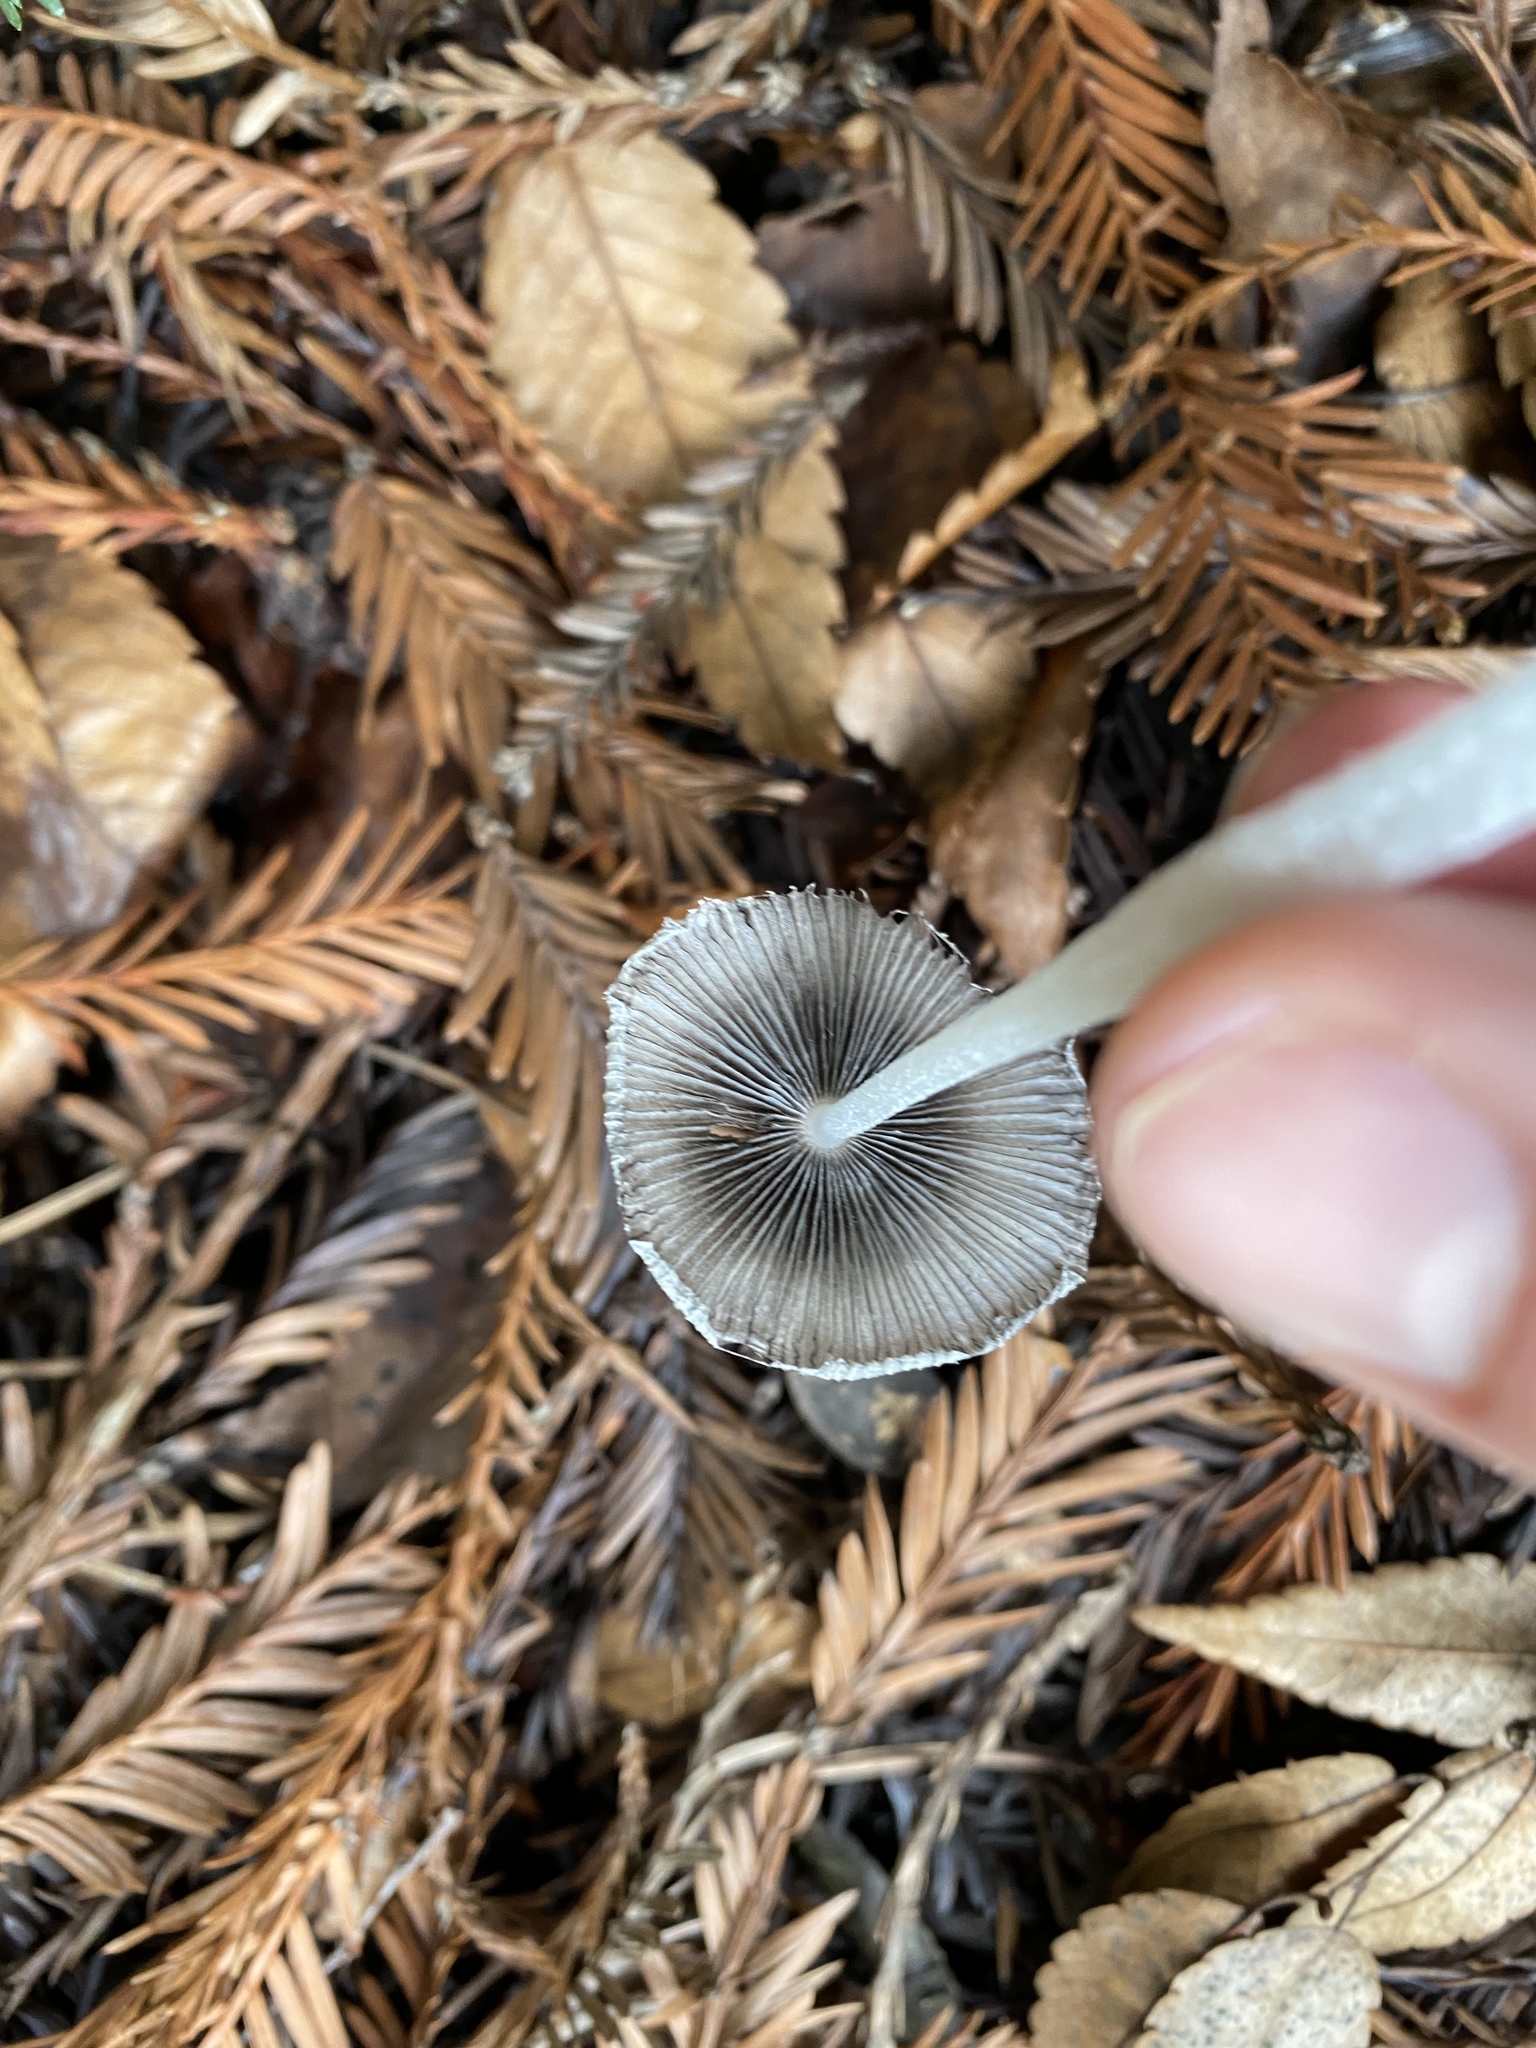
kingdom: Fungi
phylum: Basidiomycota
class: Agaricomycetes
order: Agaricales
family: Psathyrellaceae
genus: Coprinopsis
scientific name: Coprinopsis lagopus
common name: Hare'sfoot inkcap
